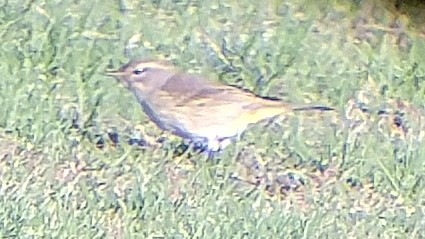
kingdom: Animalia
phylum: Chordata
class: Aves
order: Passeriformes
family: Parulidae
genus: Setophaga
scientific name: Setophaga palmarum
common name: Palm warbler
